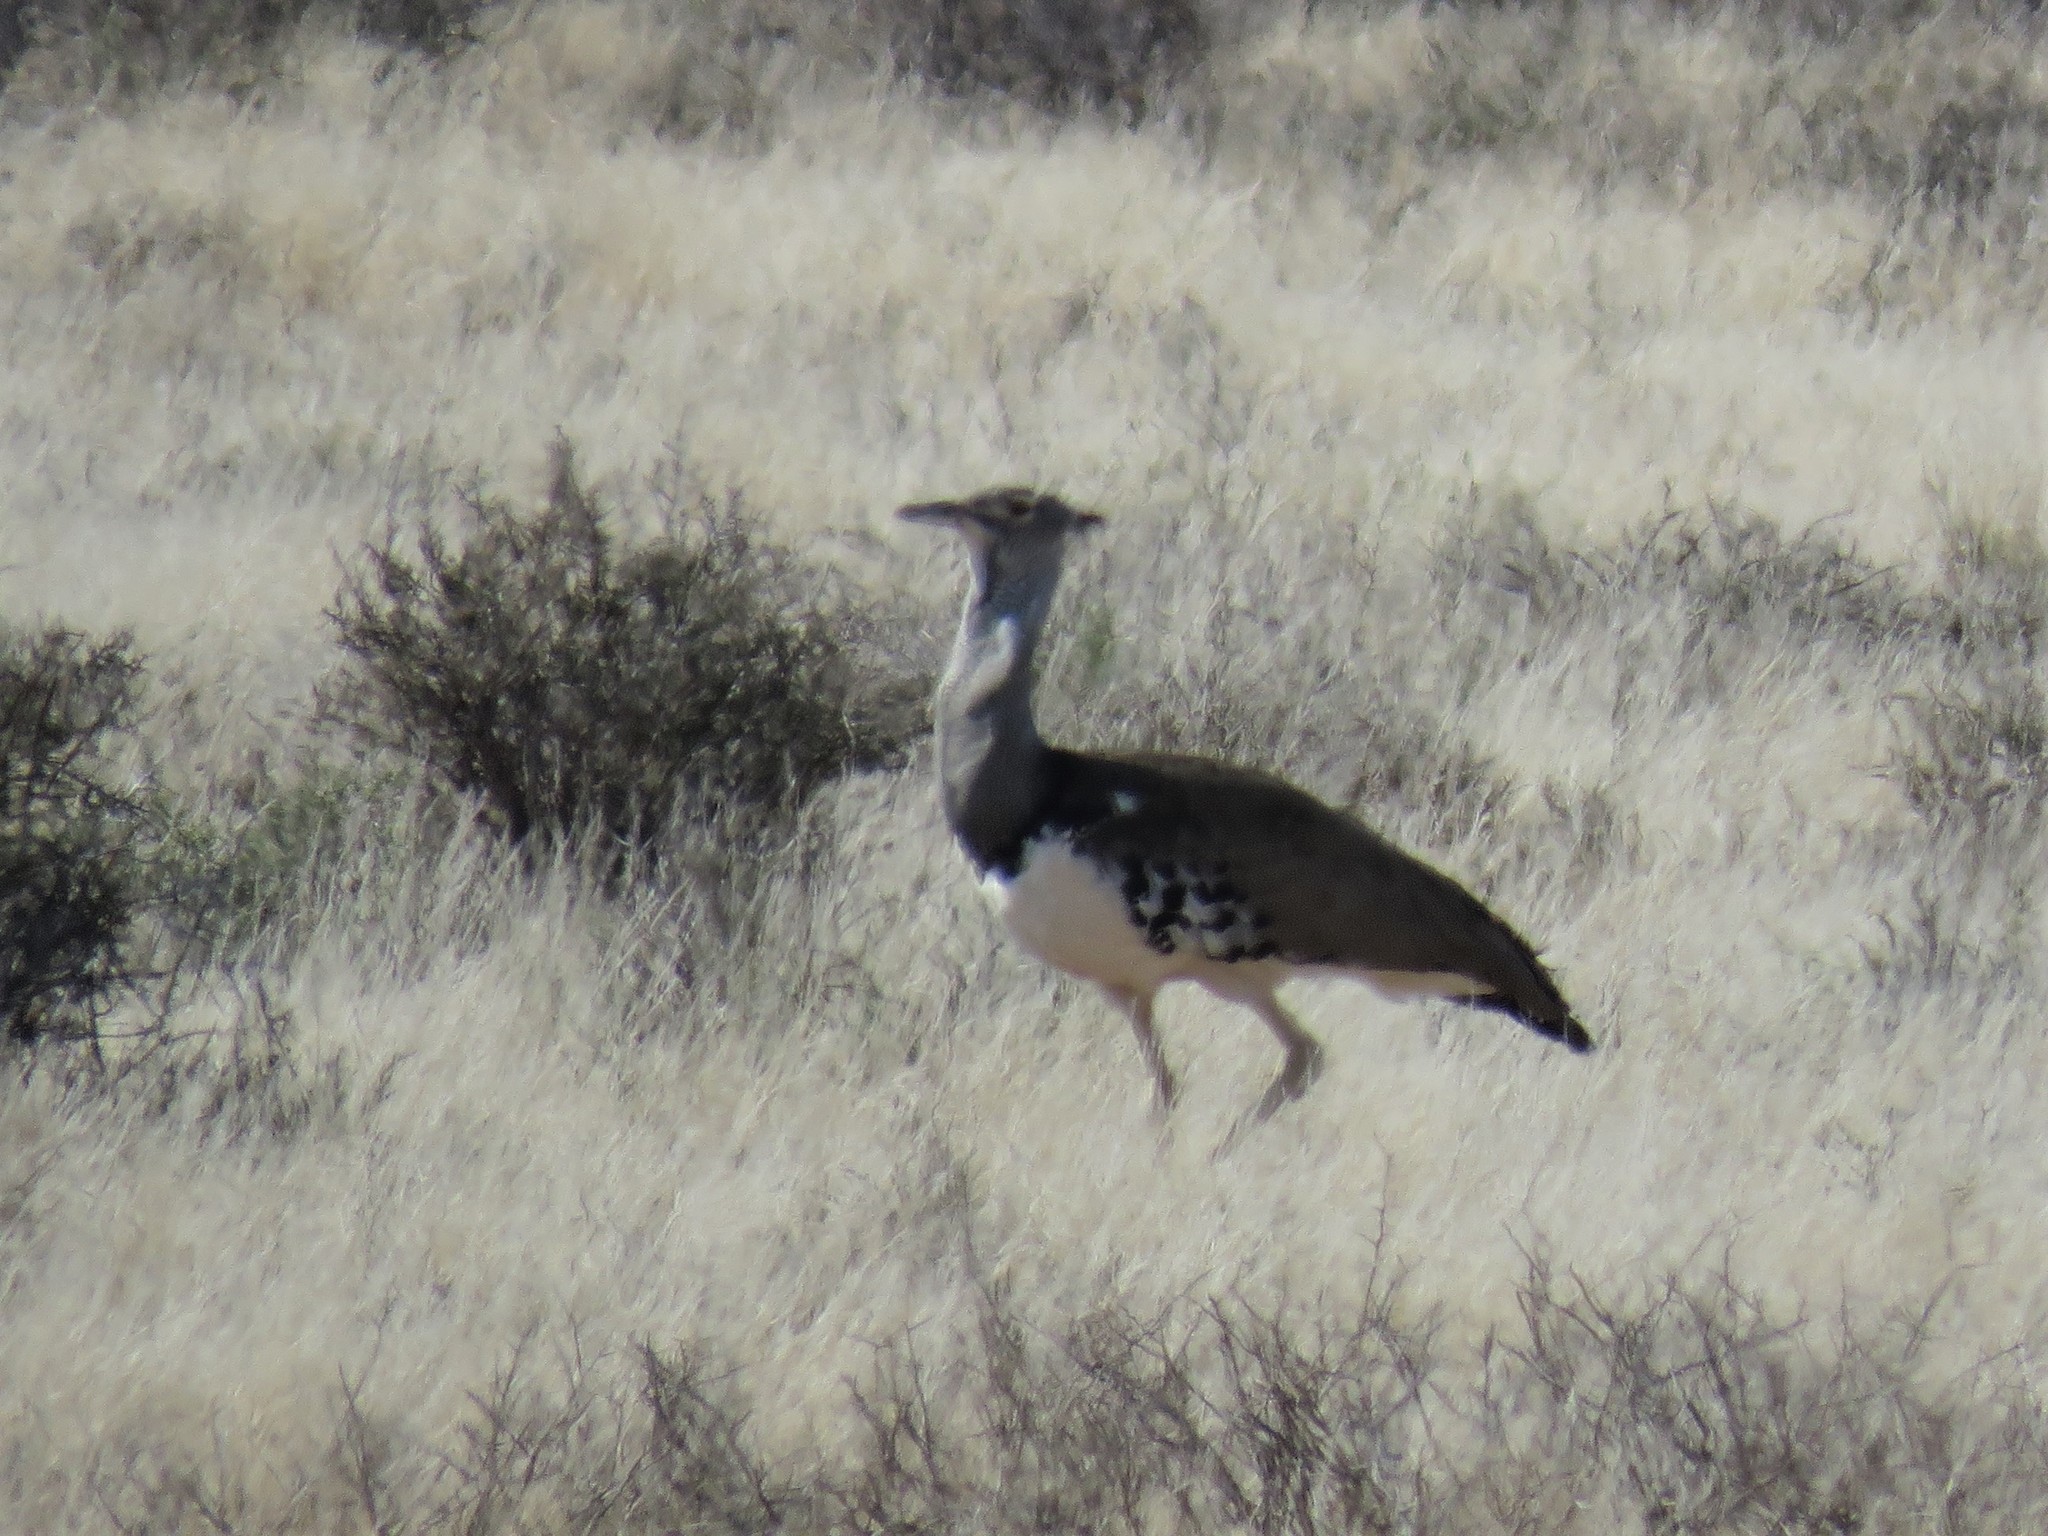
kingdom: Animalia
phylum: Chordata
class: Aves
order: Otidiformes
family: Otididae
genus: Ardeotis
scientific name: Ardeotis kori
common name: Kori bustard
